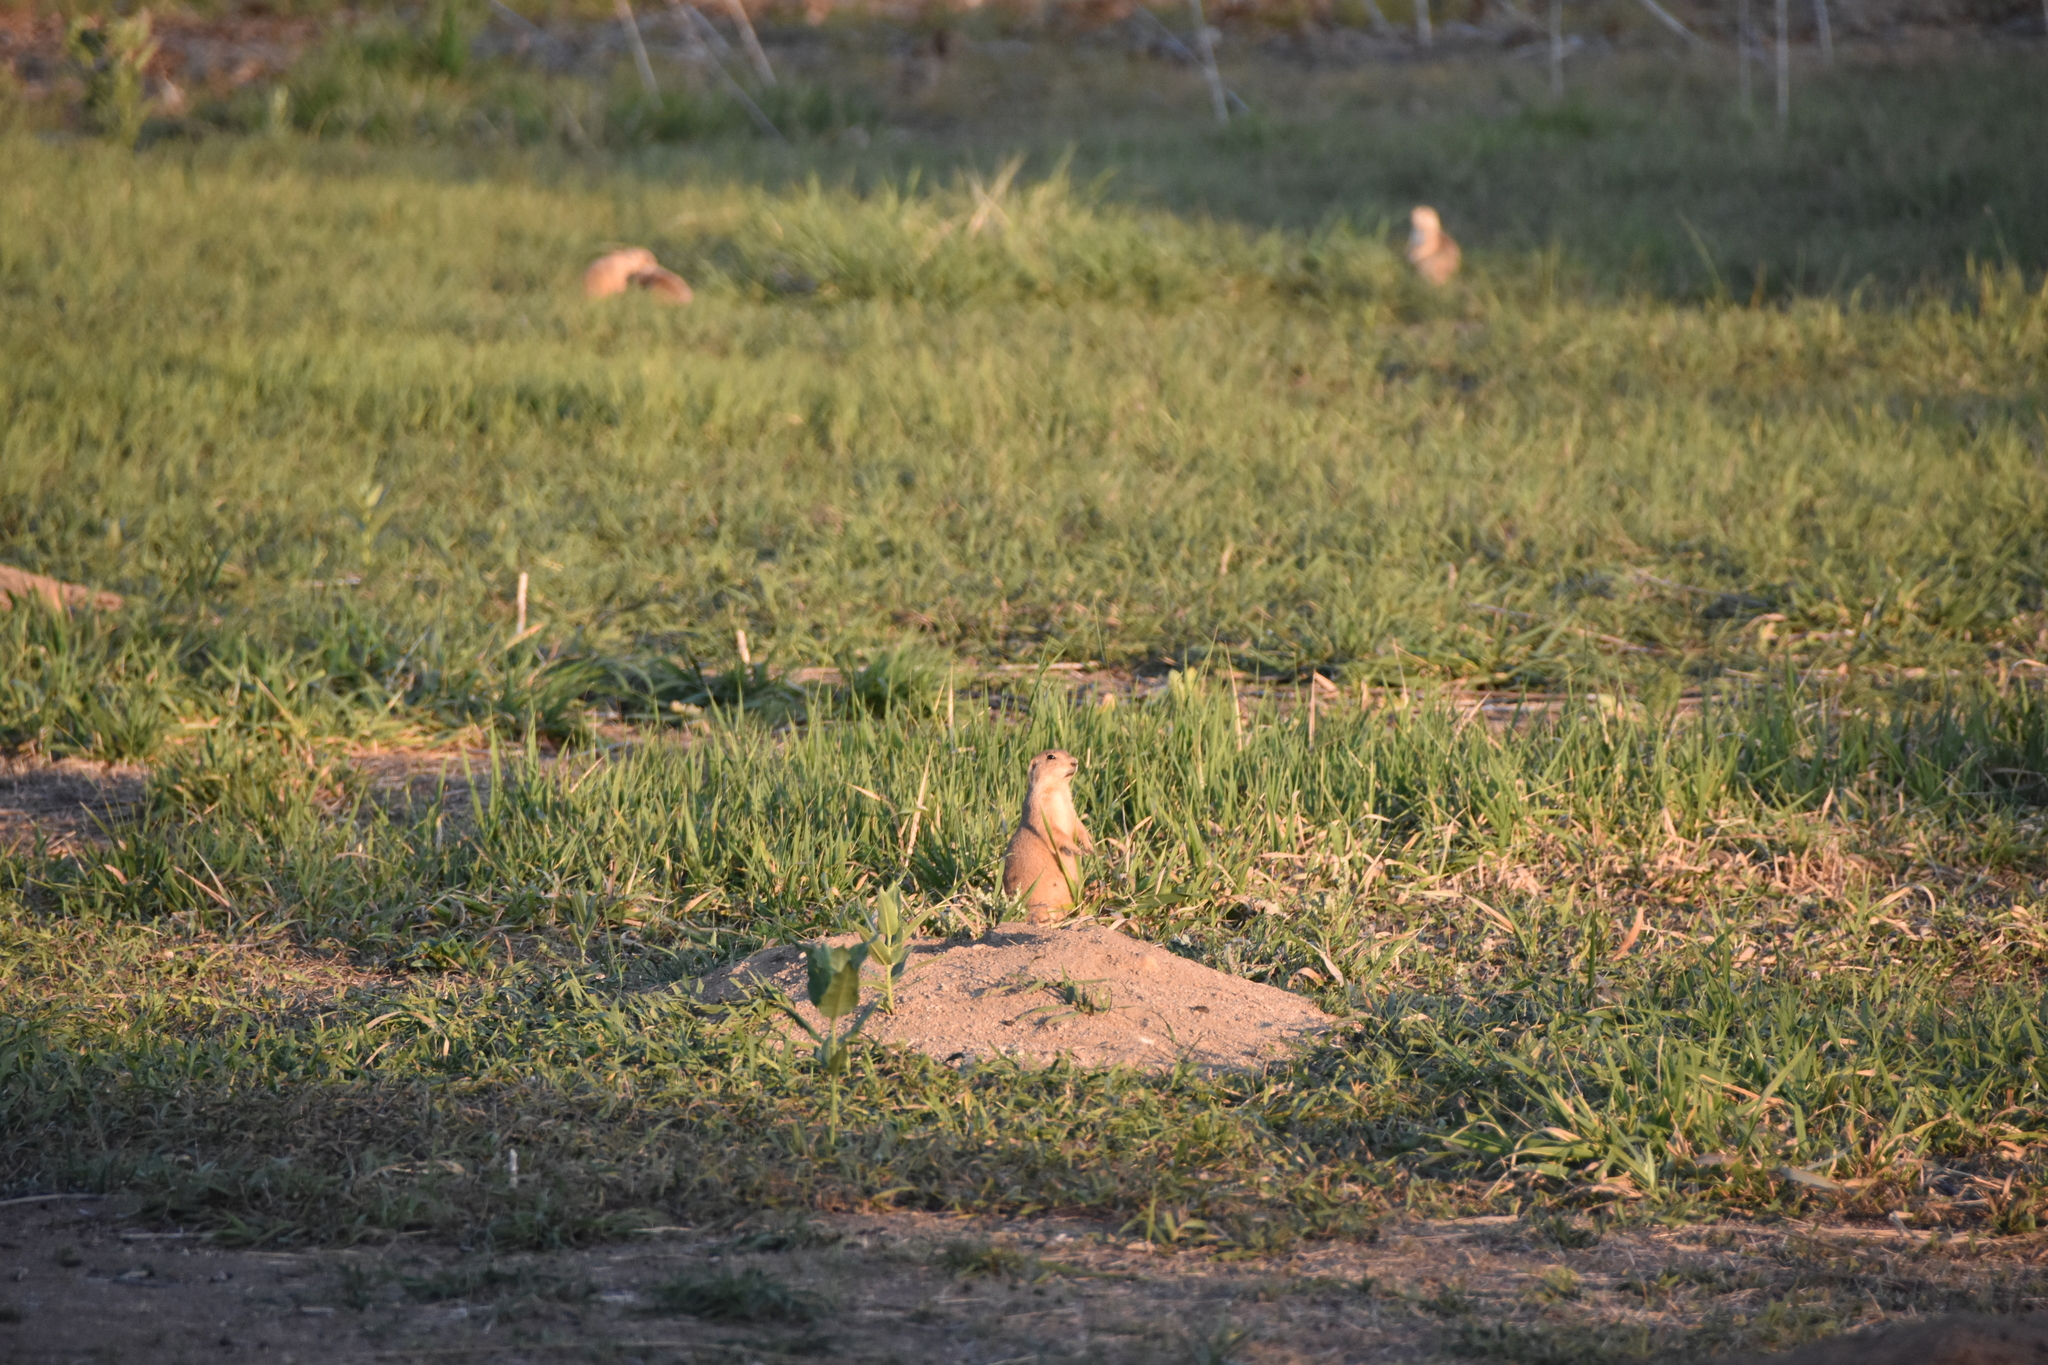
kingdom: Animalia
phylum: Chordata
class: Mammalia
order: Rodentia
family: Sciuridae
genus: Cynomys
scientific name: Cynomys ludovicianus
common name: Black-tailed prairie dog
